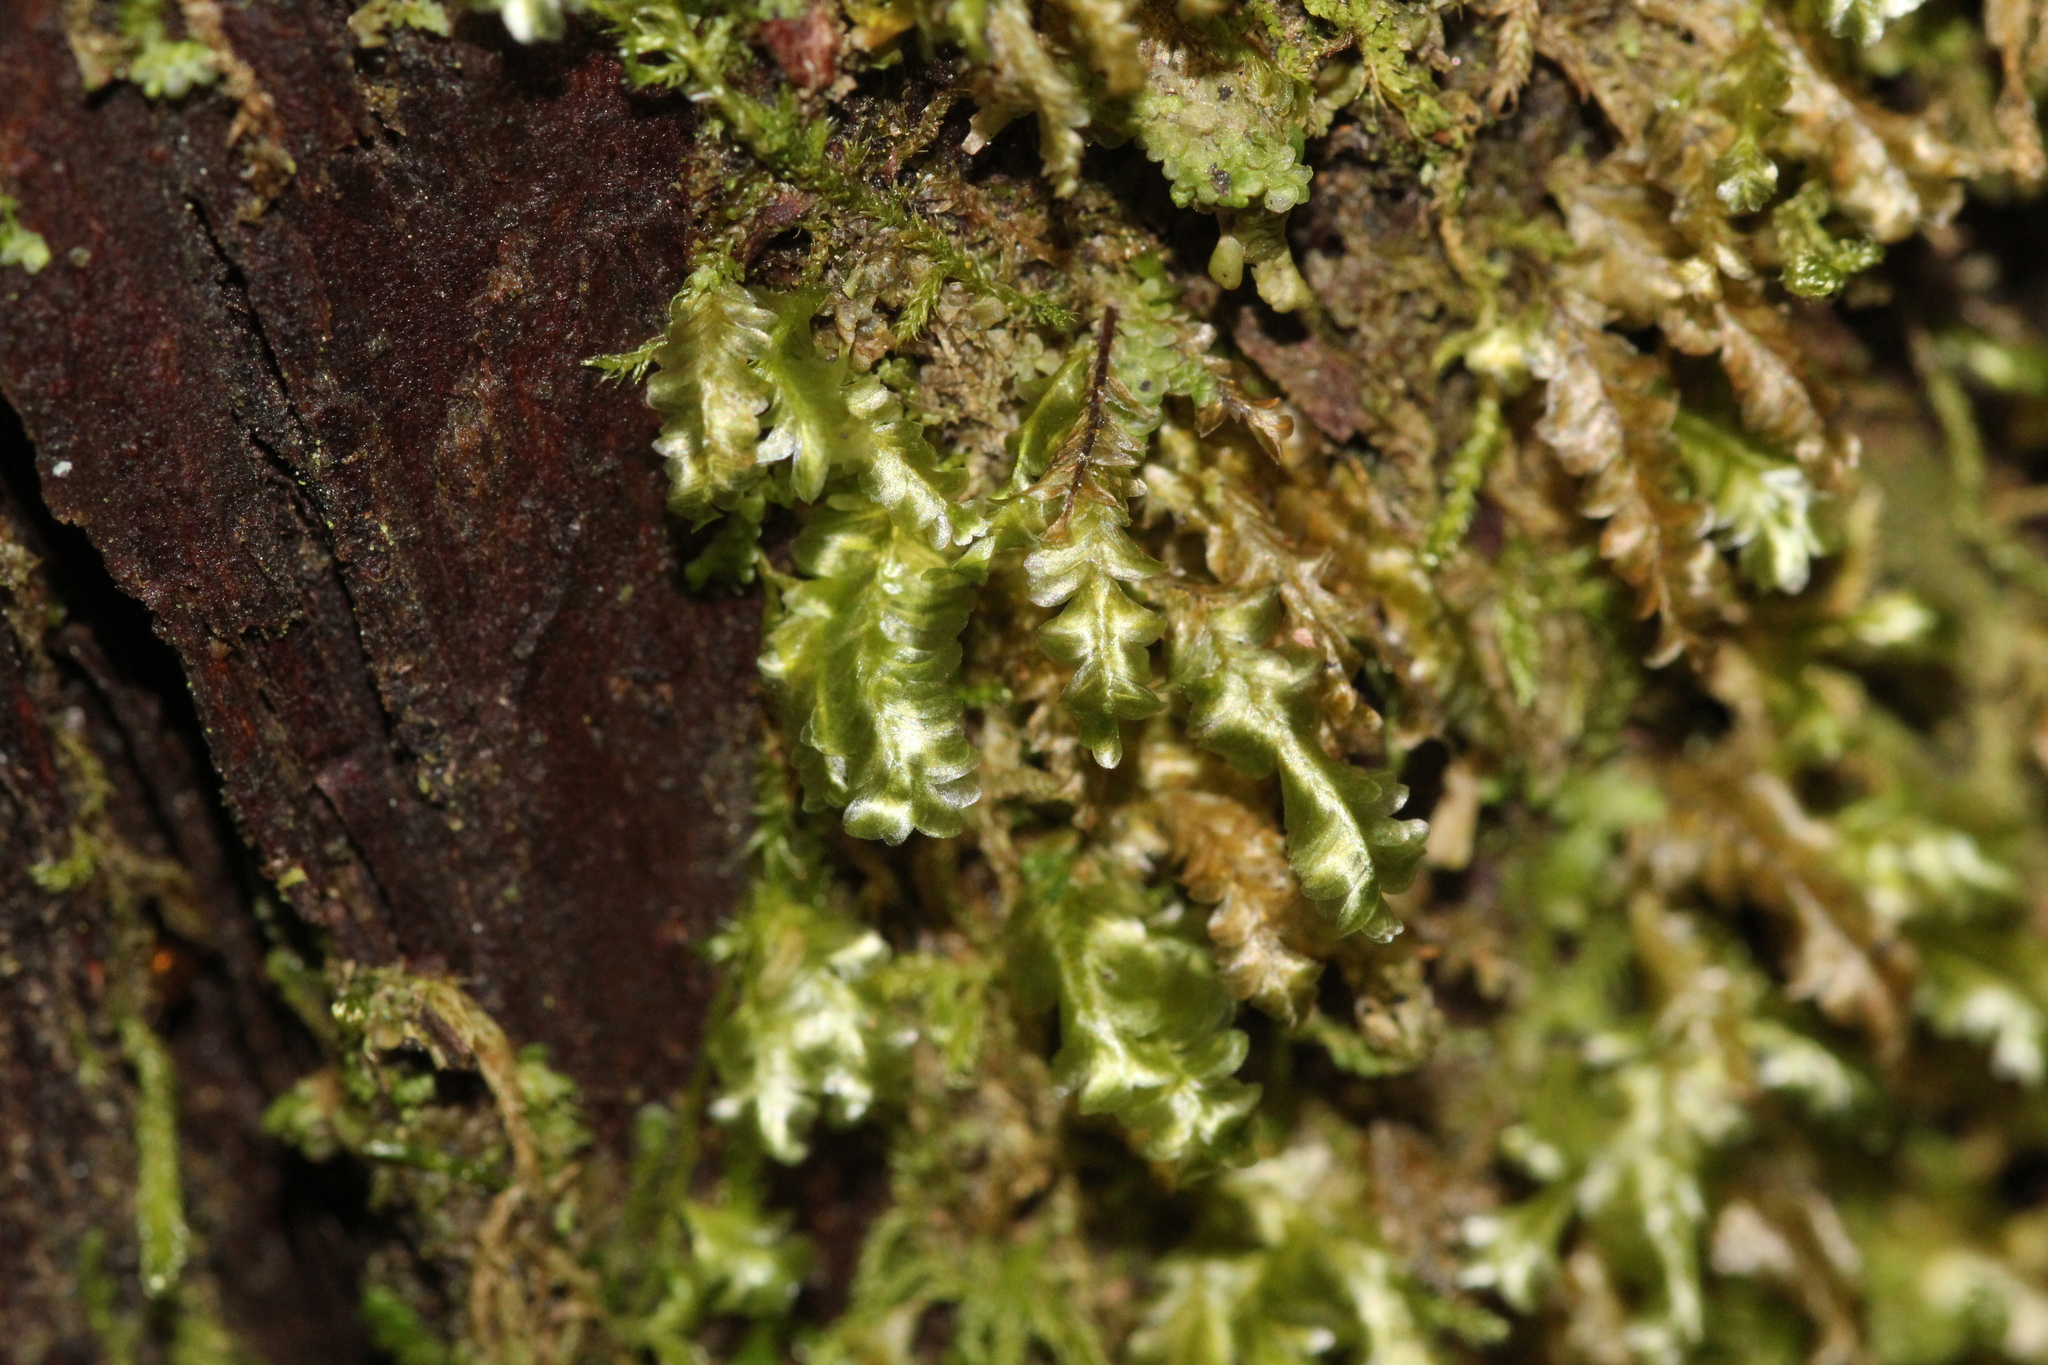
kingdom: Plantae
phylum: Bryophyta
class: Bryopsida
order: Hypnales
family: Neckeraceae
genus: Homalia
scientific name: Homalia trichomanoides
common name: Lime homalia moss
